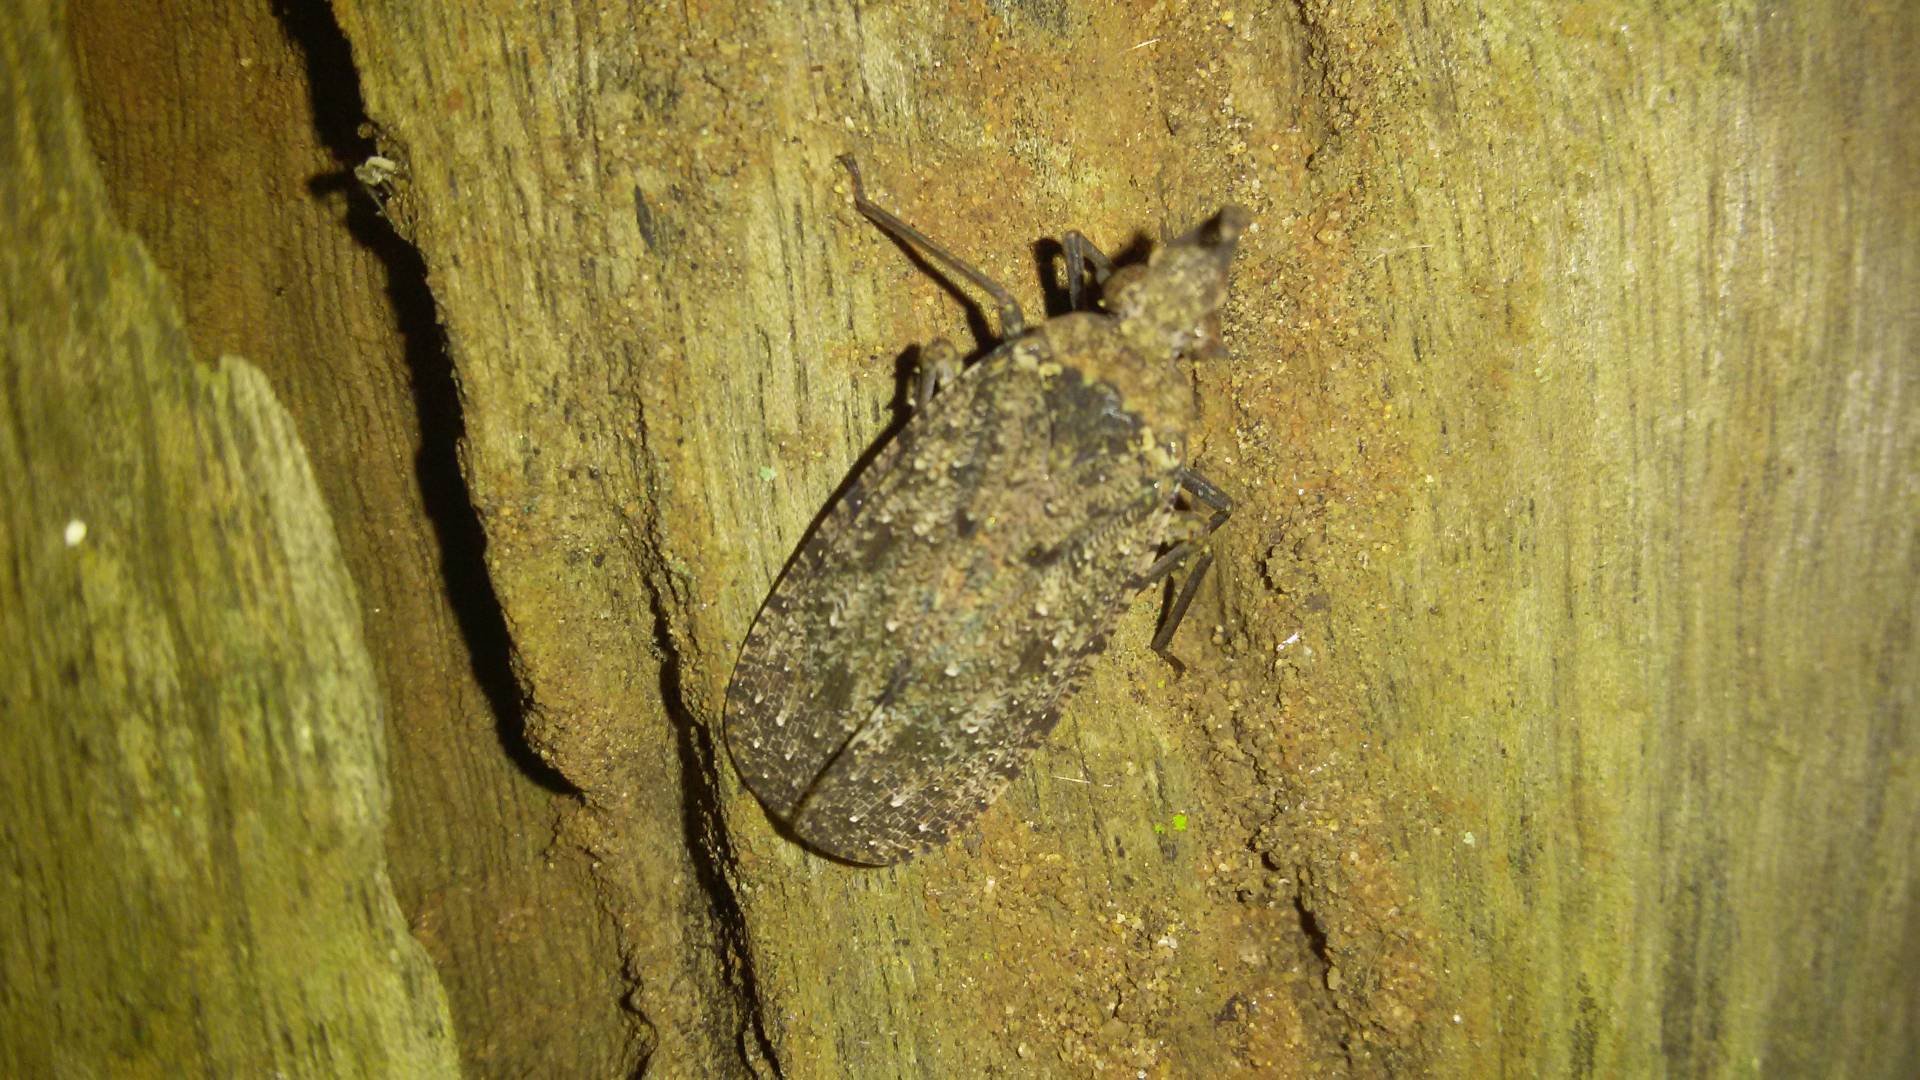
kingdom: Animalia
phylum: Arthropoda
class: Insecta
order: Hemiptera
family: Fulgoridae
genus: Druentia
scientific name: Druentia sicca
